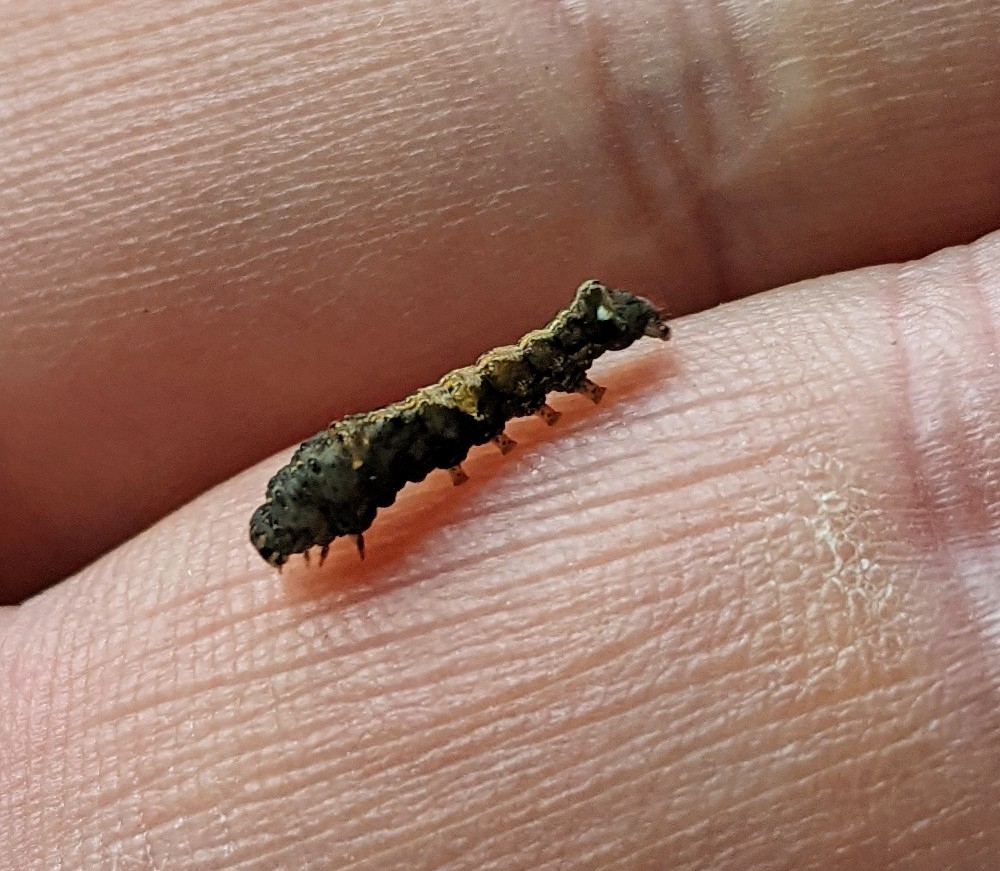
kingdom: Animalia
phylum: Arthropoda
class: Insecta
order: Lepidoptera
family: Noctuidae
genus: Elaphria
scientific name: Elaphria versicolor
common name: Fir harlequin
